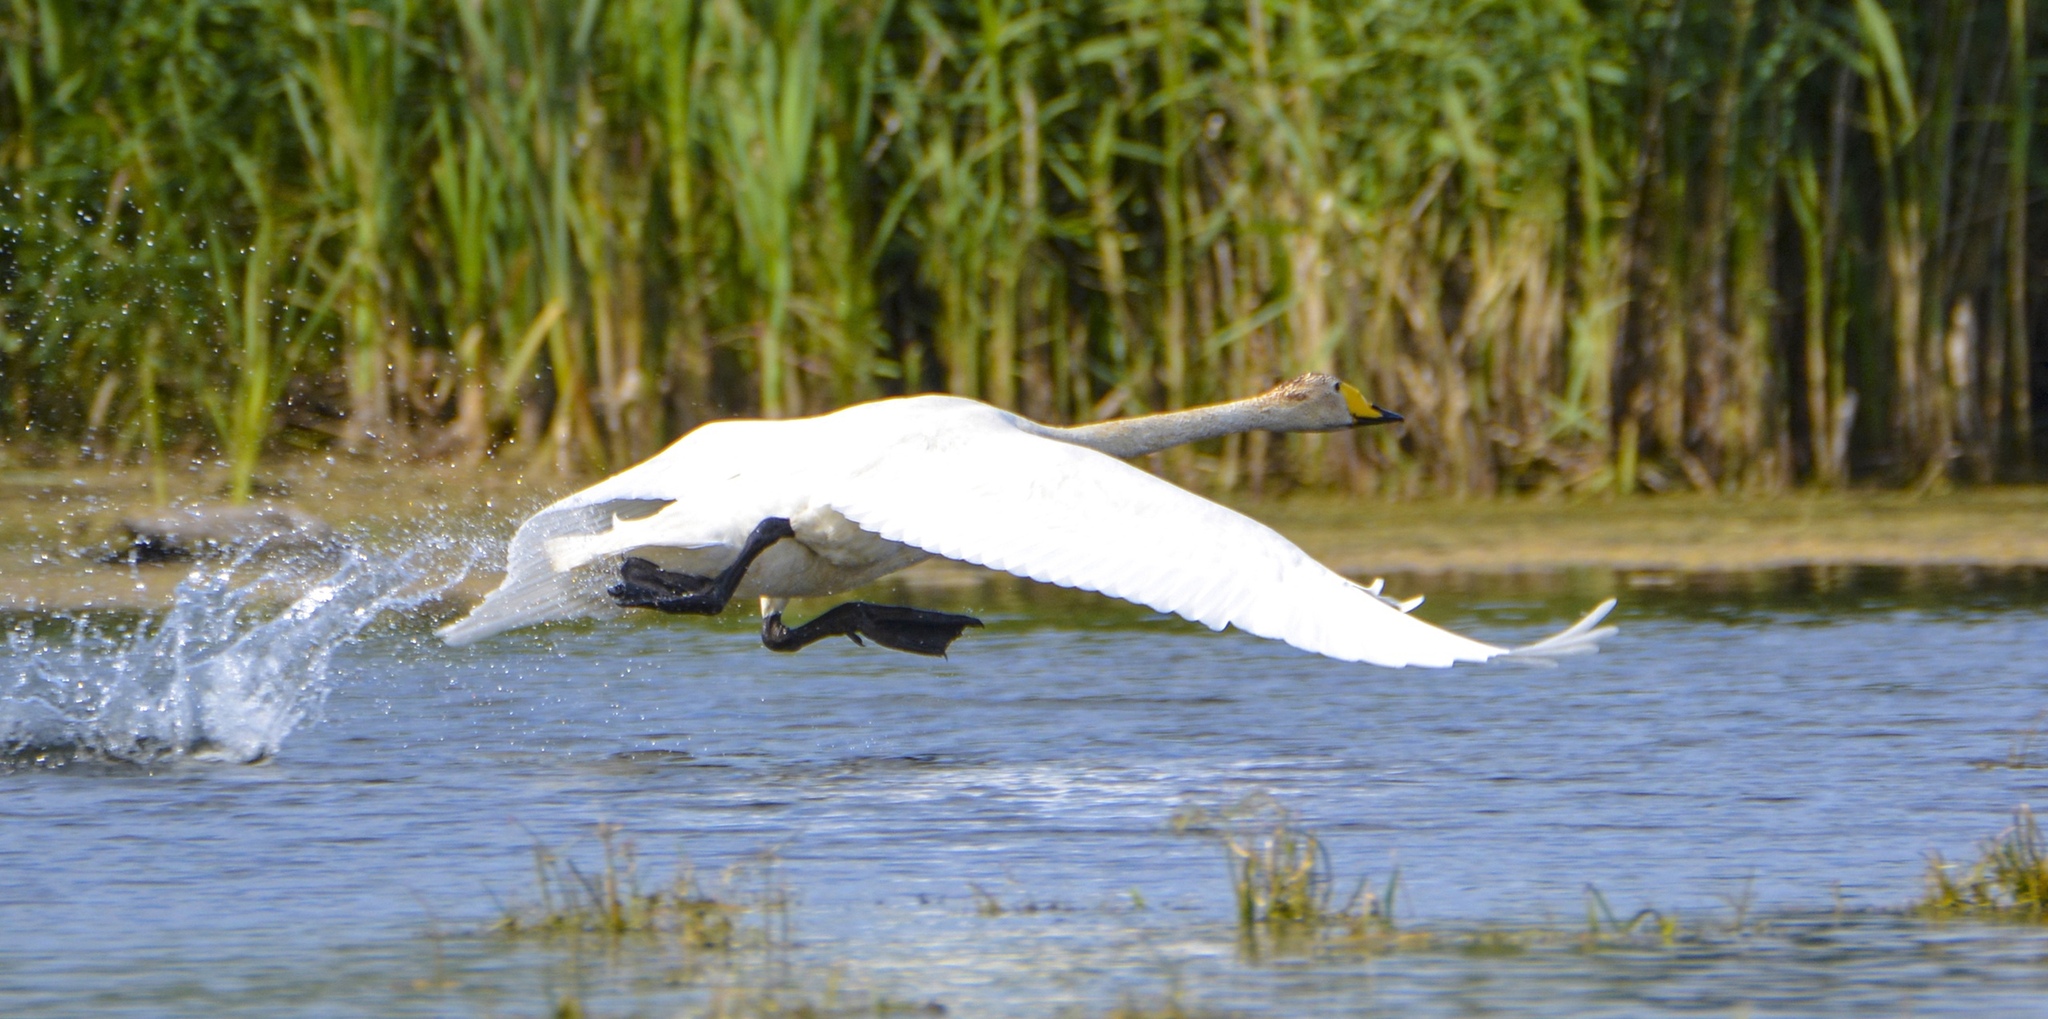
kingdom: Animalia
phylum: Chordata
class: Aves
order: Anseriformes
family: Anatidae
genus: Cygnus
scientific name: Cygnus cygnus
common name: Whooper swan
